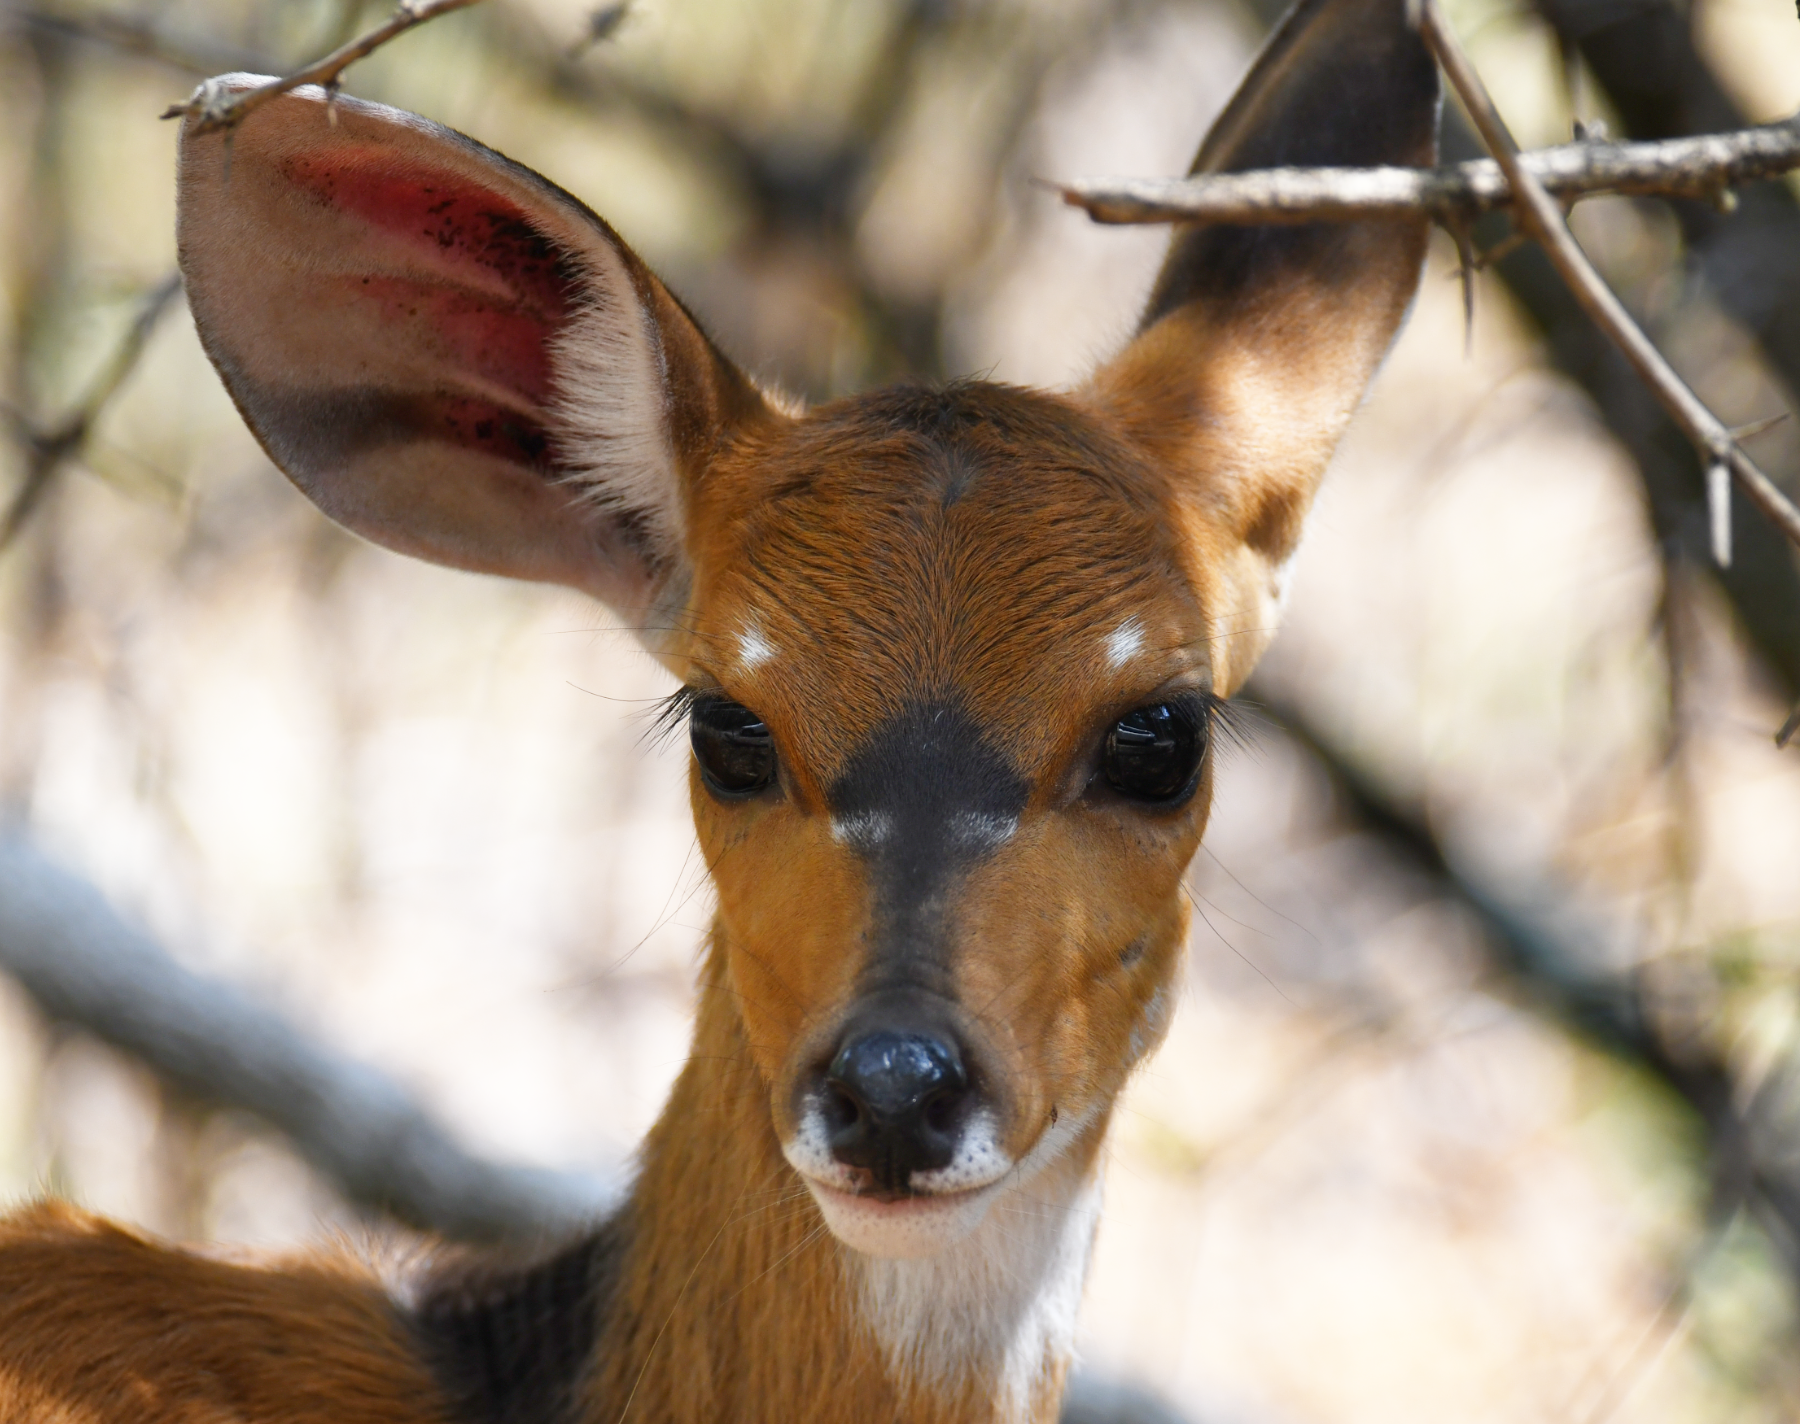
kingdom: Animalia
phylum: Chordata
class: Mammalia
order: Artiodactyla
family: Bovidae
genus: Tragelaphus
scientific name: Tragelaphus scriptus
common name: Bushbuck
